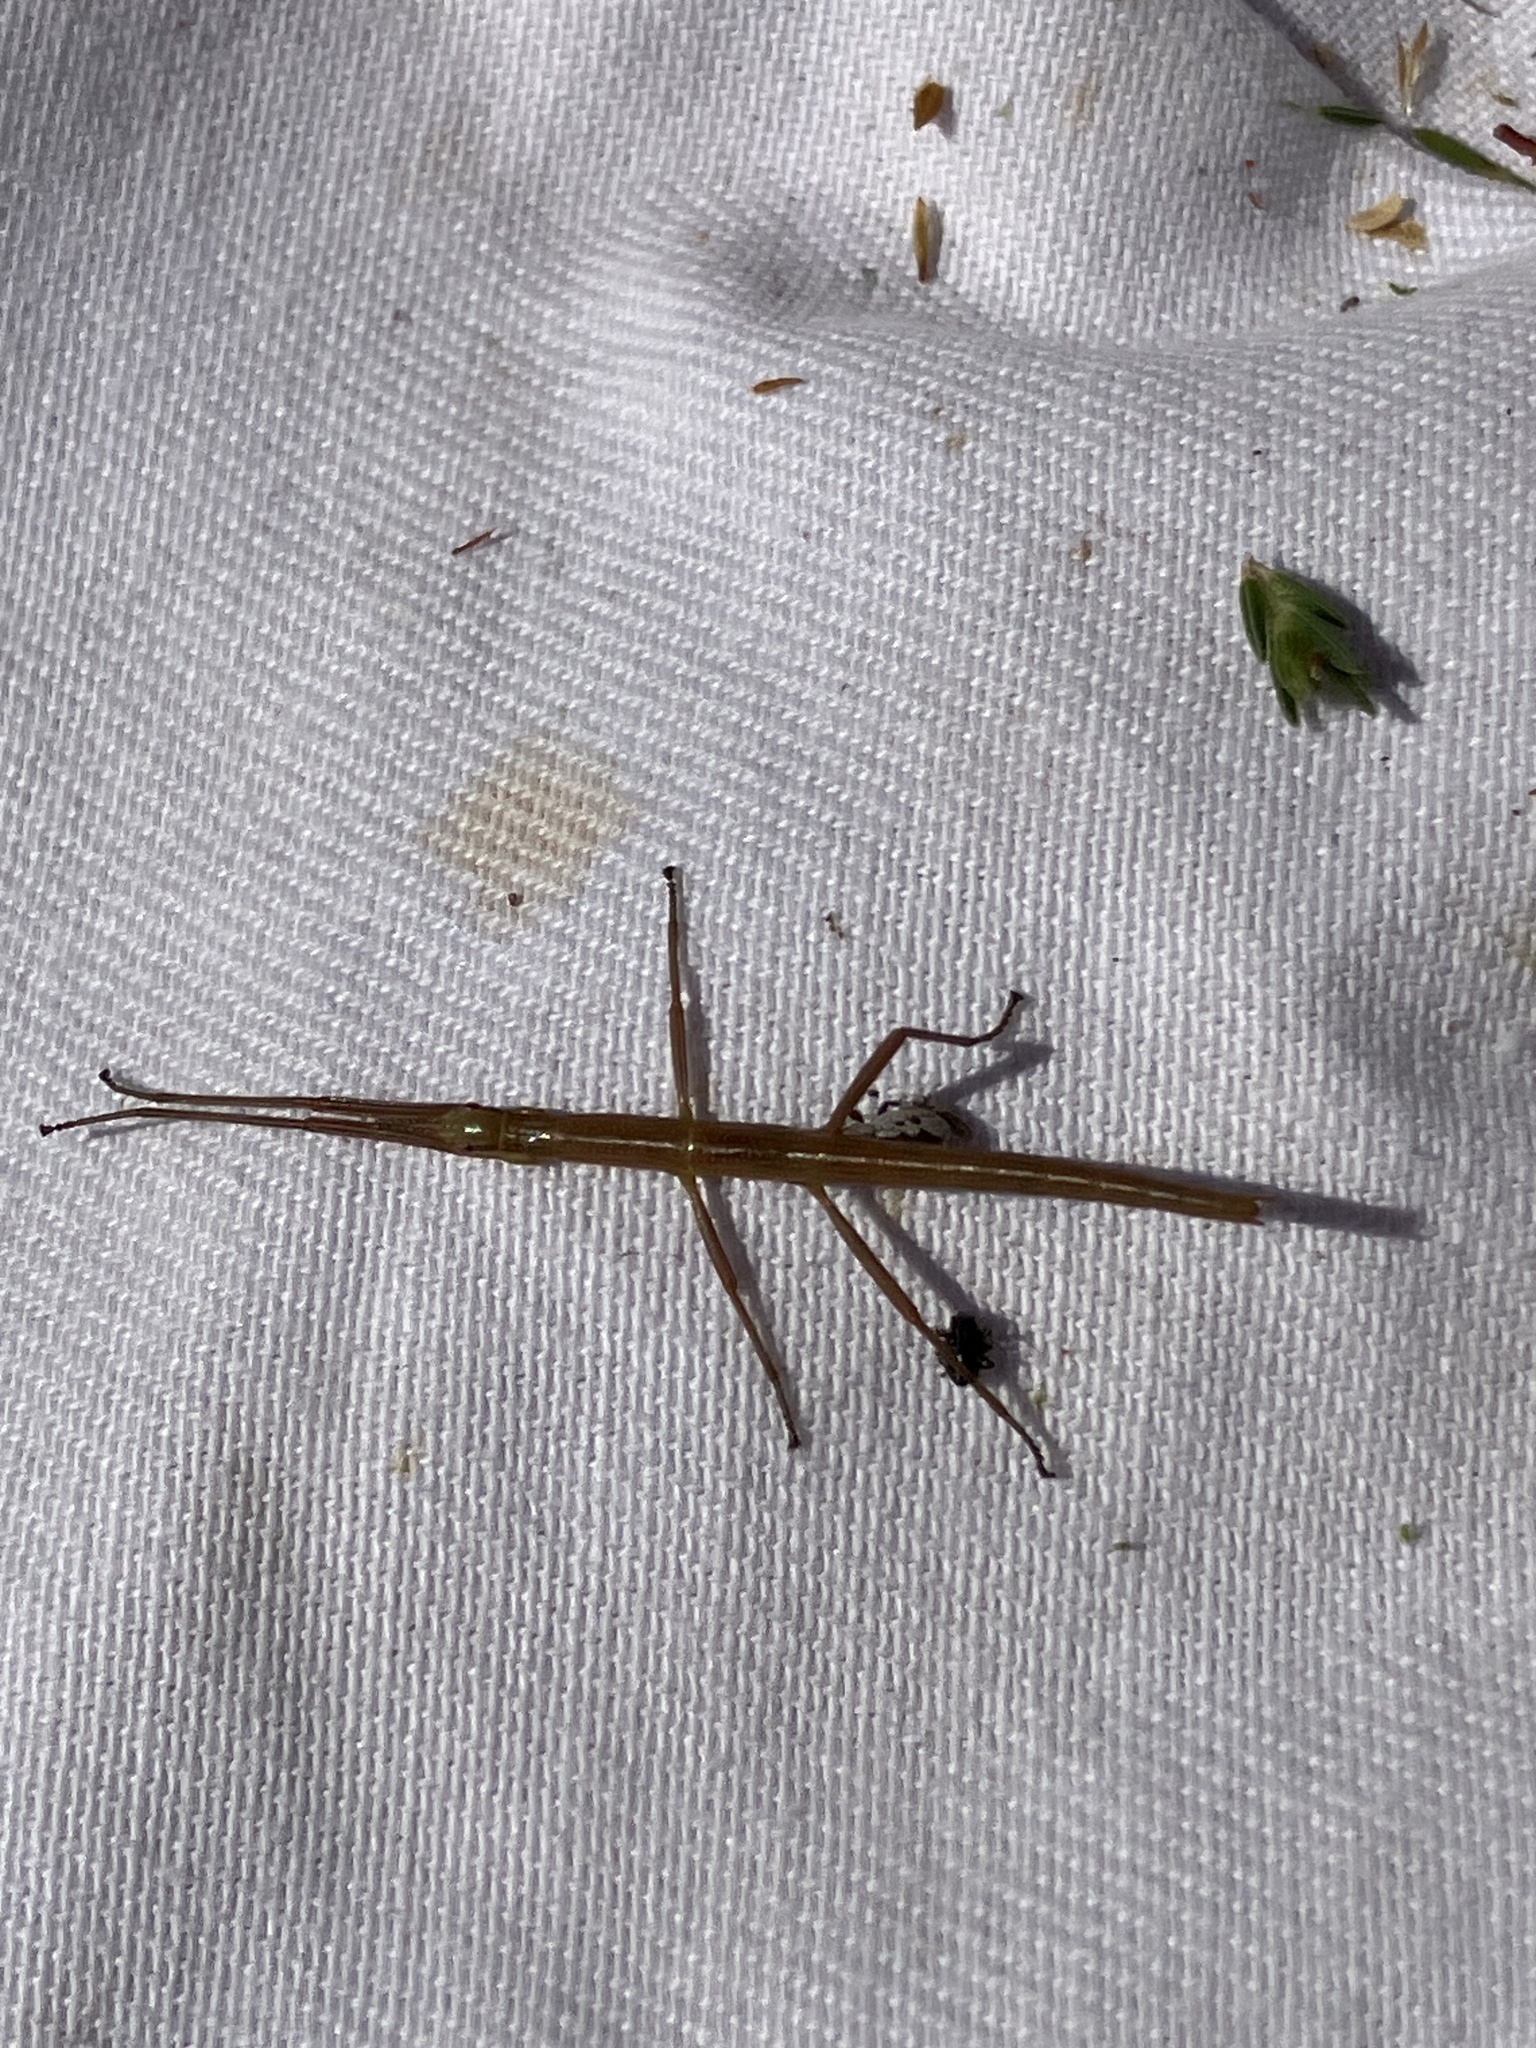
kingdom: Animalia
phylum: Arthropoda
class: Insecta
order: Phasmida
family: Bacillidae
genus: Macynia
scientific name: Macynia labiata
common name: Thunberg's stick insect
